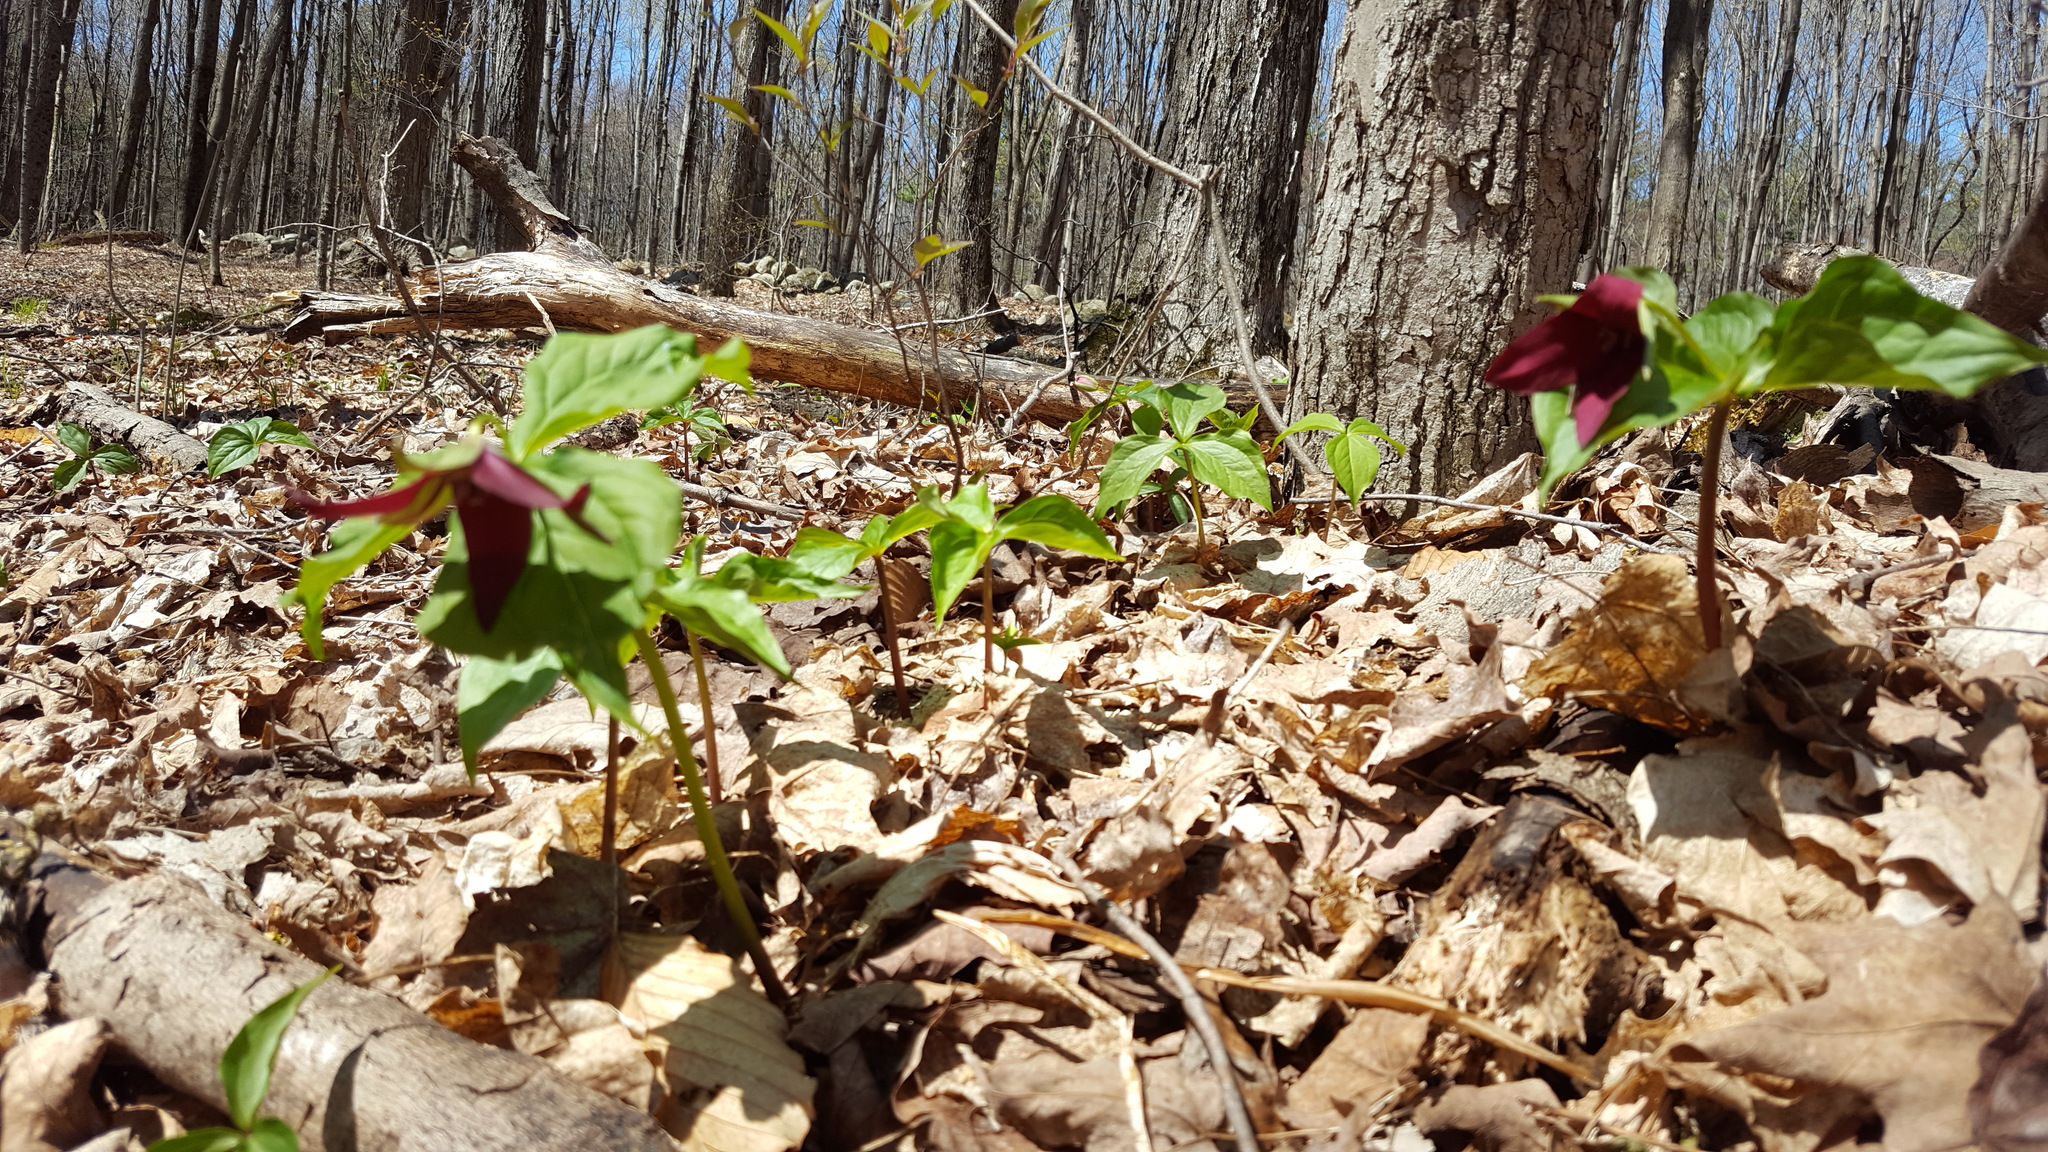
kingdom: Plantae
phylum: Tracheophyta
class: Liliopsida
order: Liliales
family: Melanthiaceae
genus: Trillium
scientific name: Trillium erectum
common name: Purple trillium
